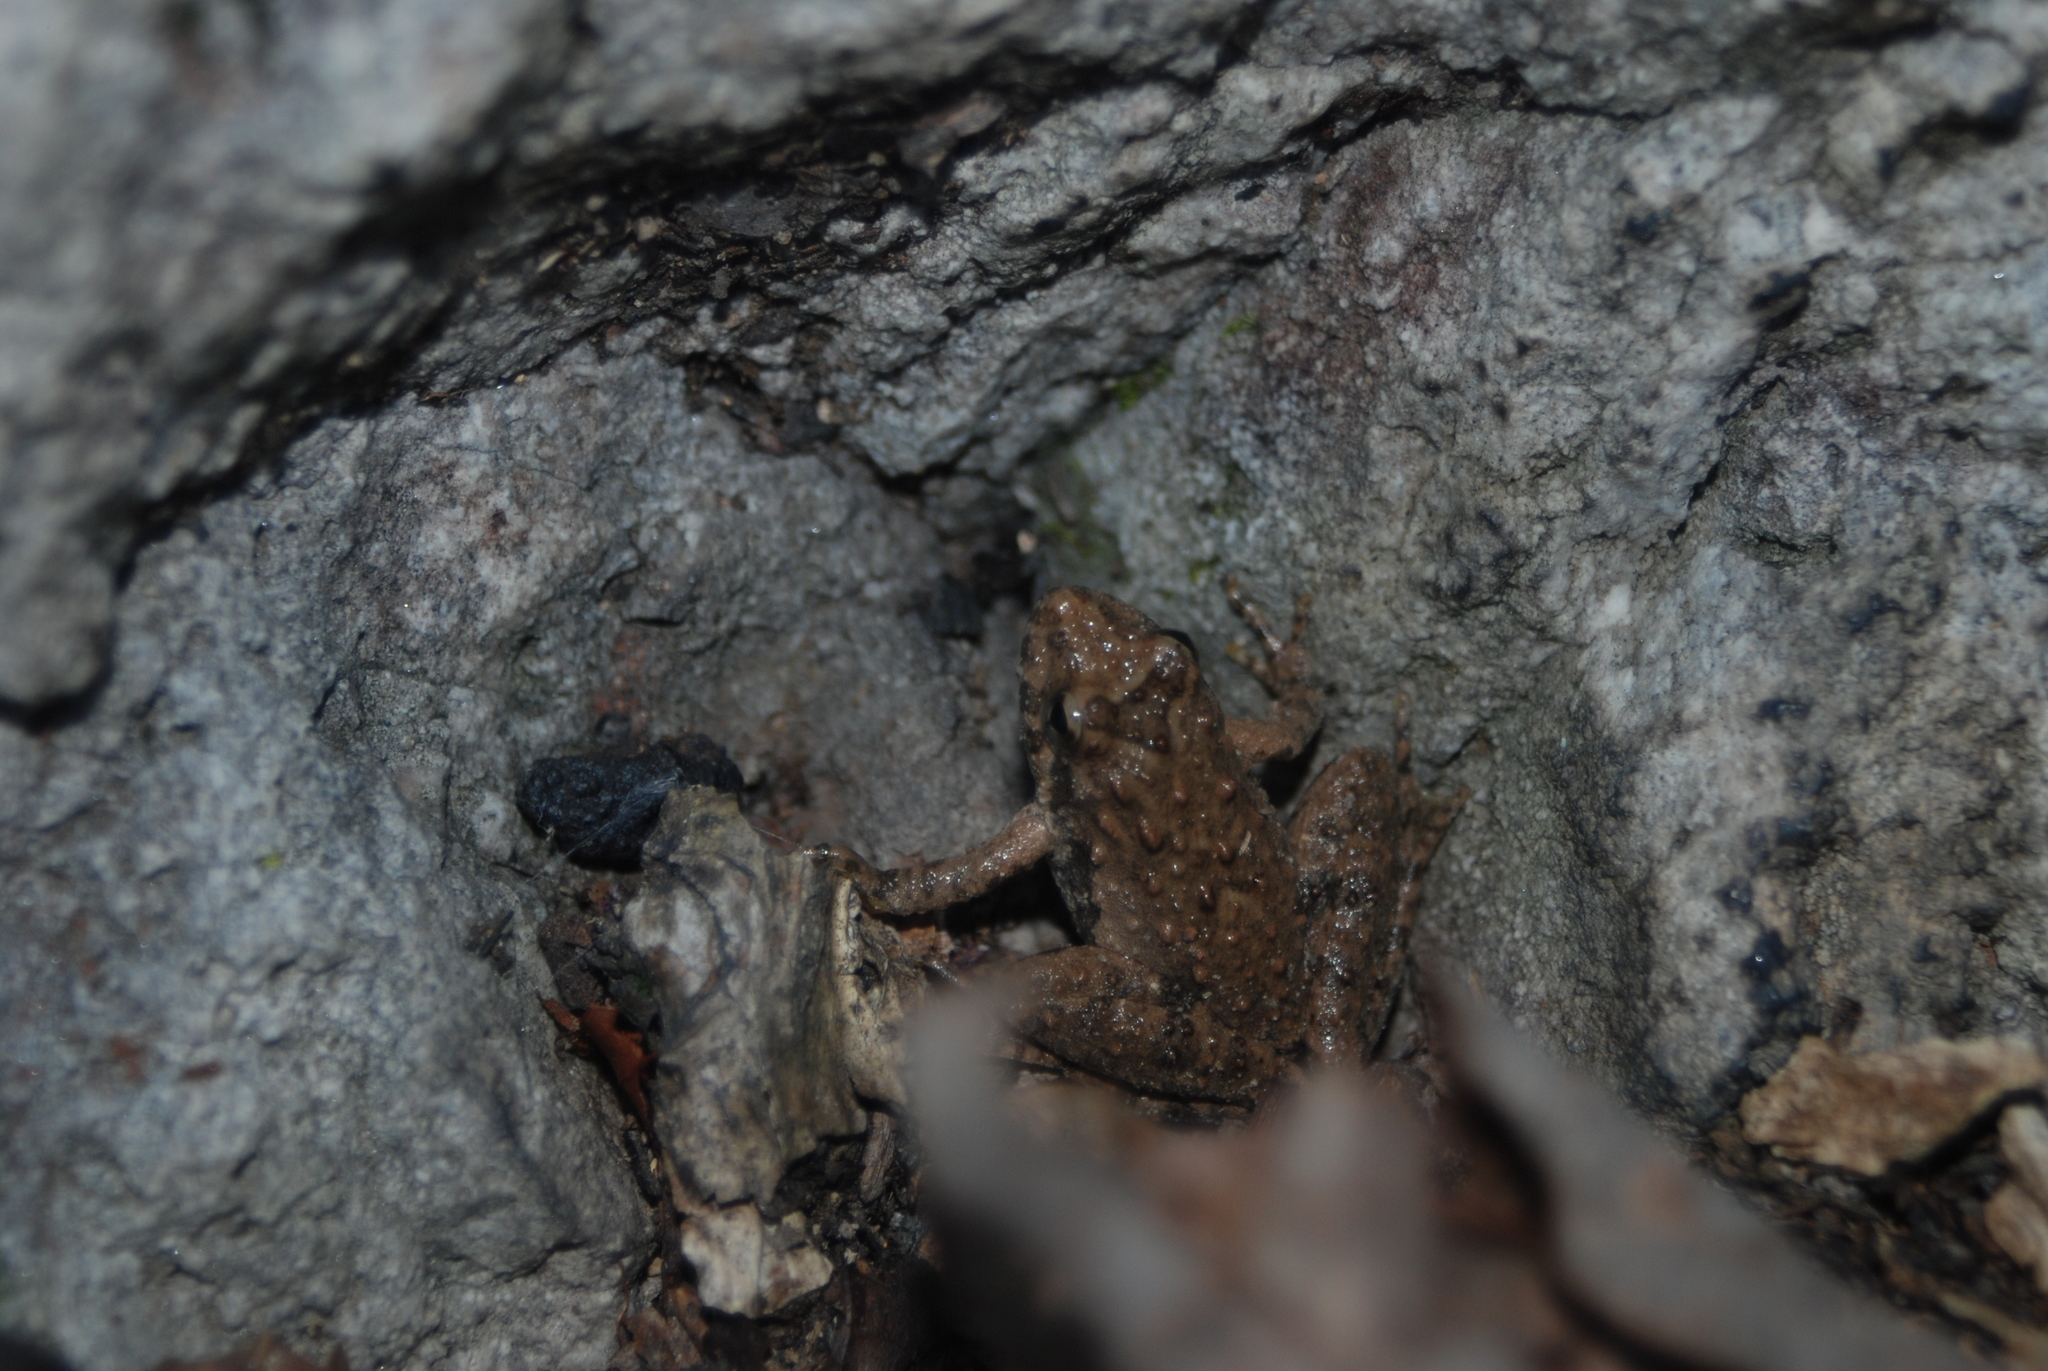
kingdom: Animalia
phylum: Chordata
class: Amphibia
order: Anura
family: Hylidae
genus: Acris
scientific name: Acris blanchardi
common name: Blanchard's cricket frog
